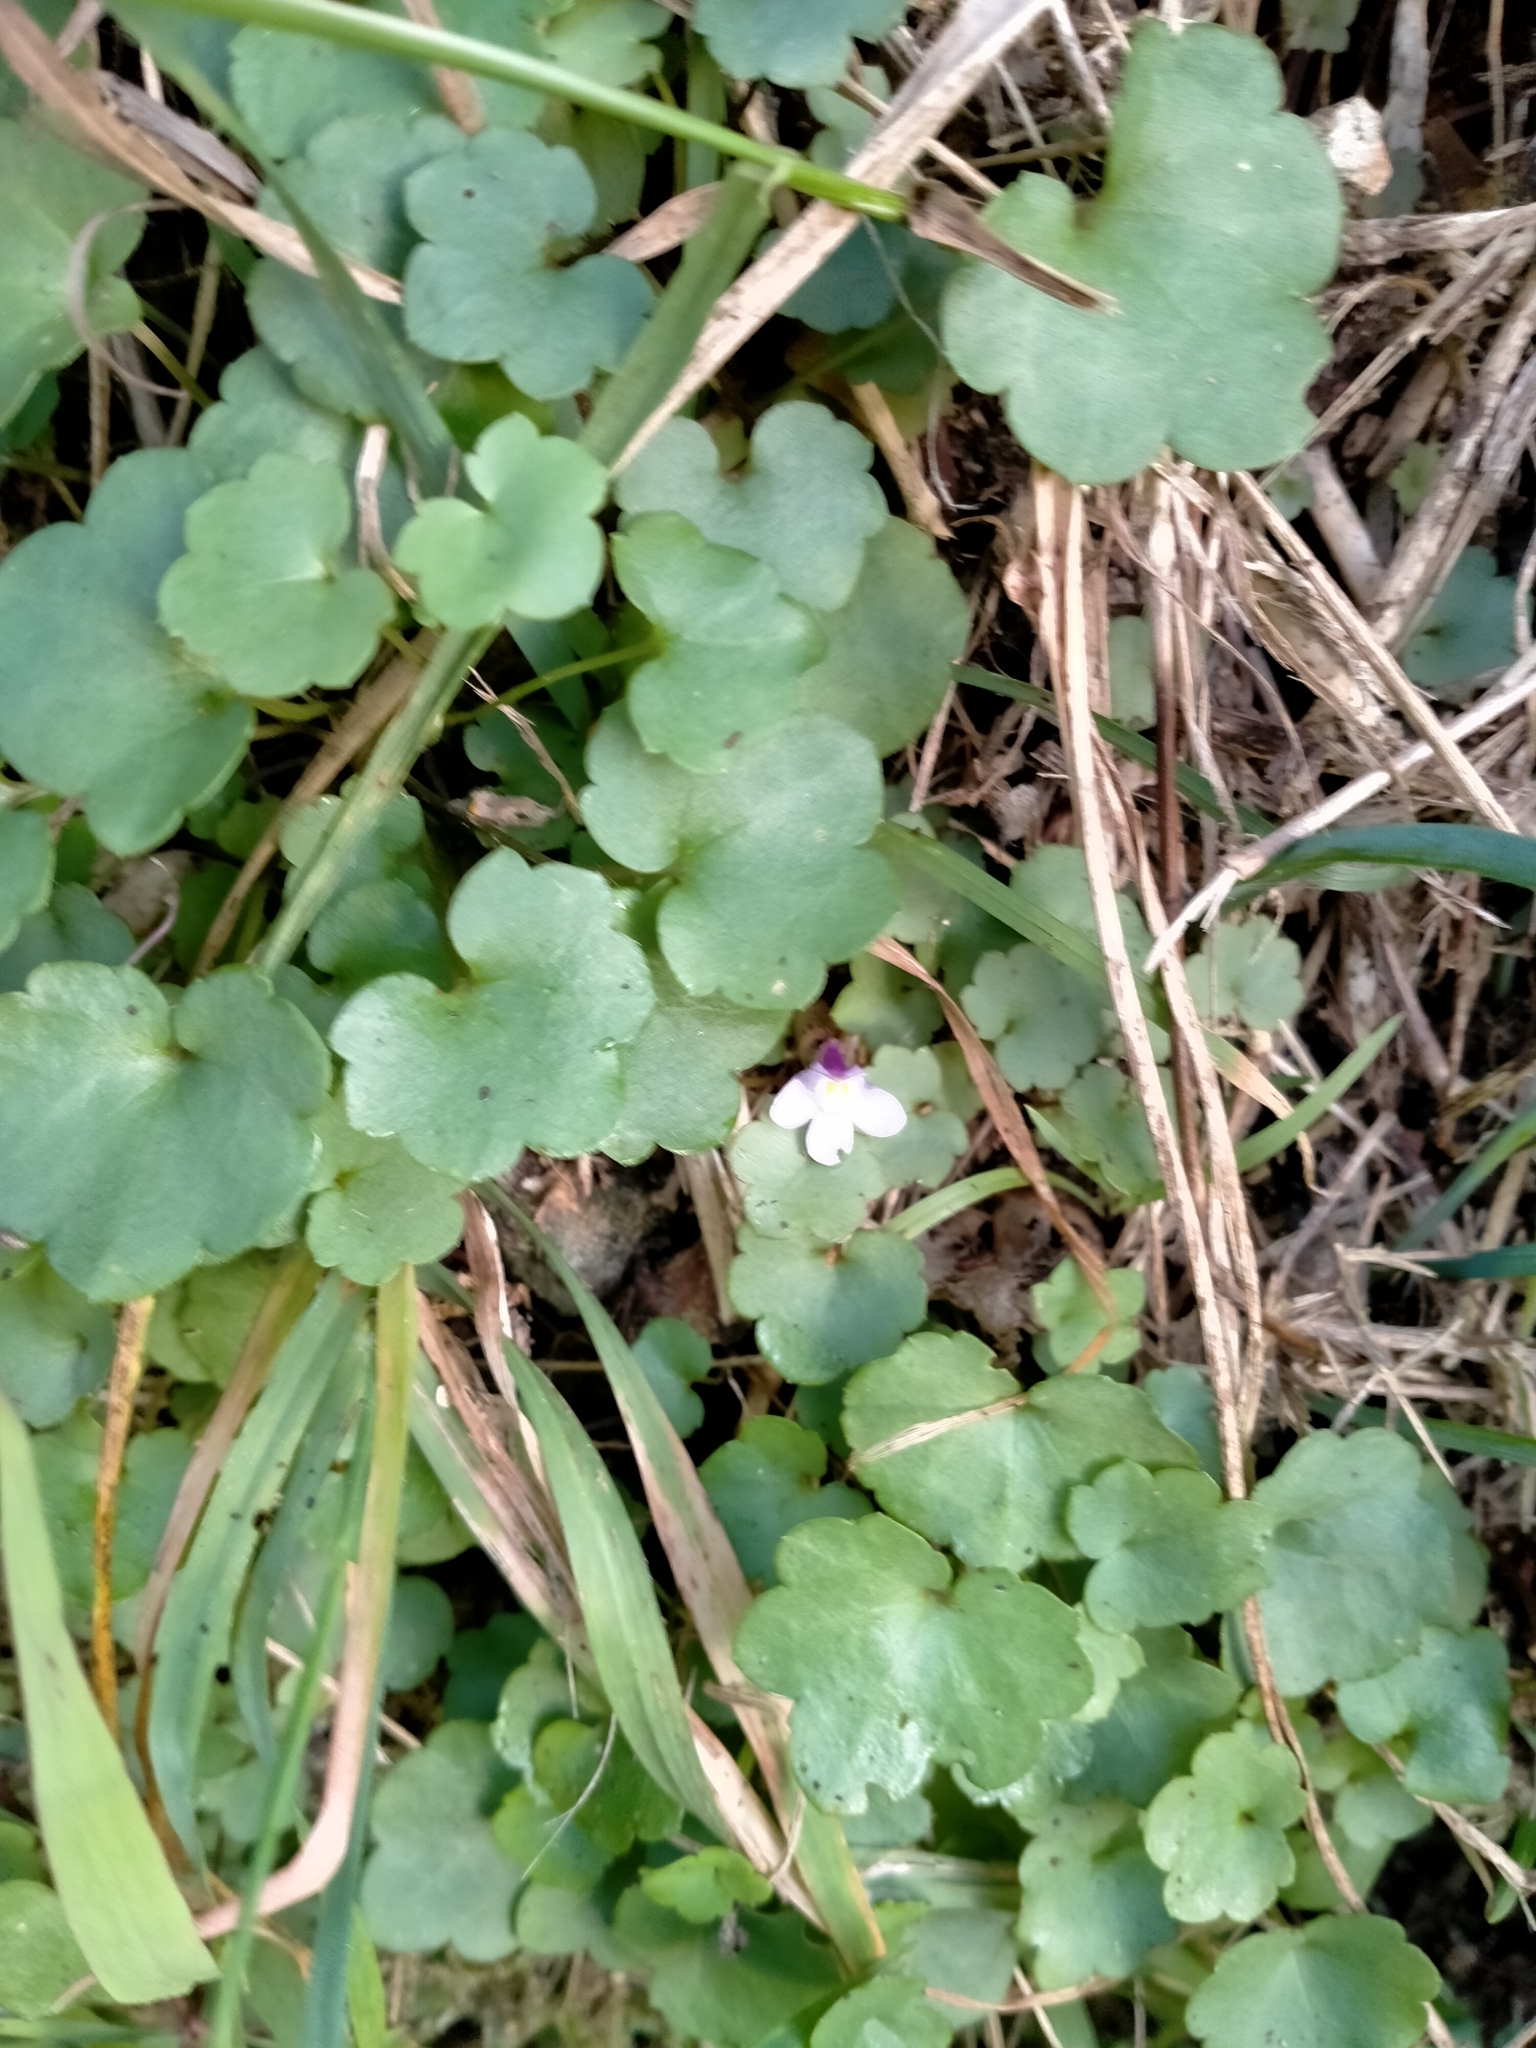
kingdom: Plantae
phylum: Tracheophyta
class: Magnoliopsida
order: Lamiales
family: Plantaginaceae
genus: Cymbalaria
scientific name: Cymbalaria muralis
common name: Ivy-leaved toadflax
